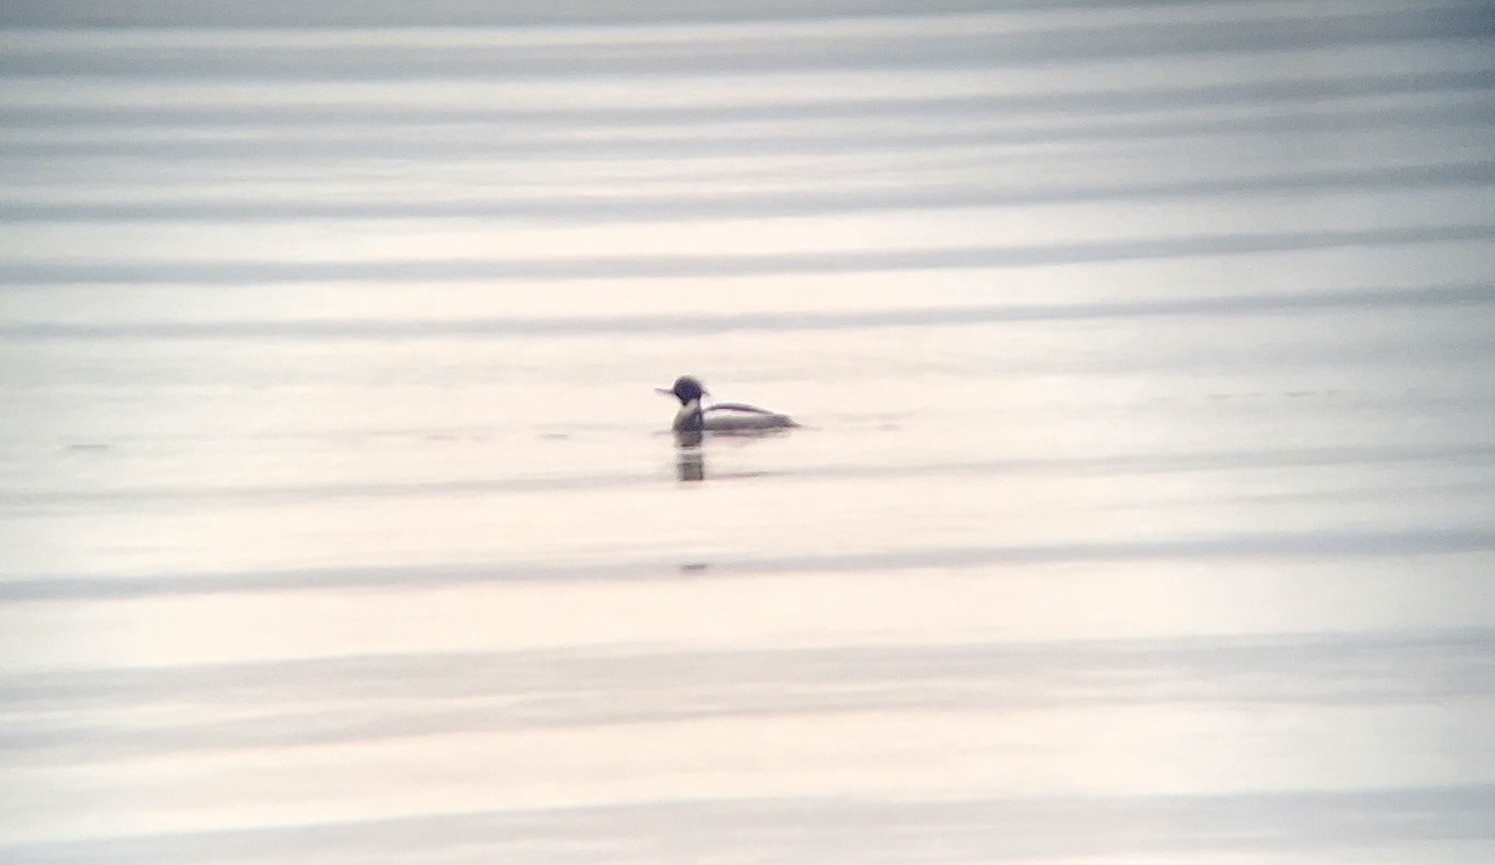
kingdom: Animalia
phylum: Chordata
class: Aves
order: Anseriformes
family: Anatidae
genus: Mergus
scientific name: Mergus serrator
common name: Red-breasted merganser
